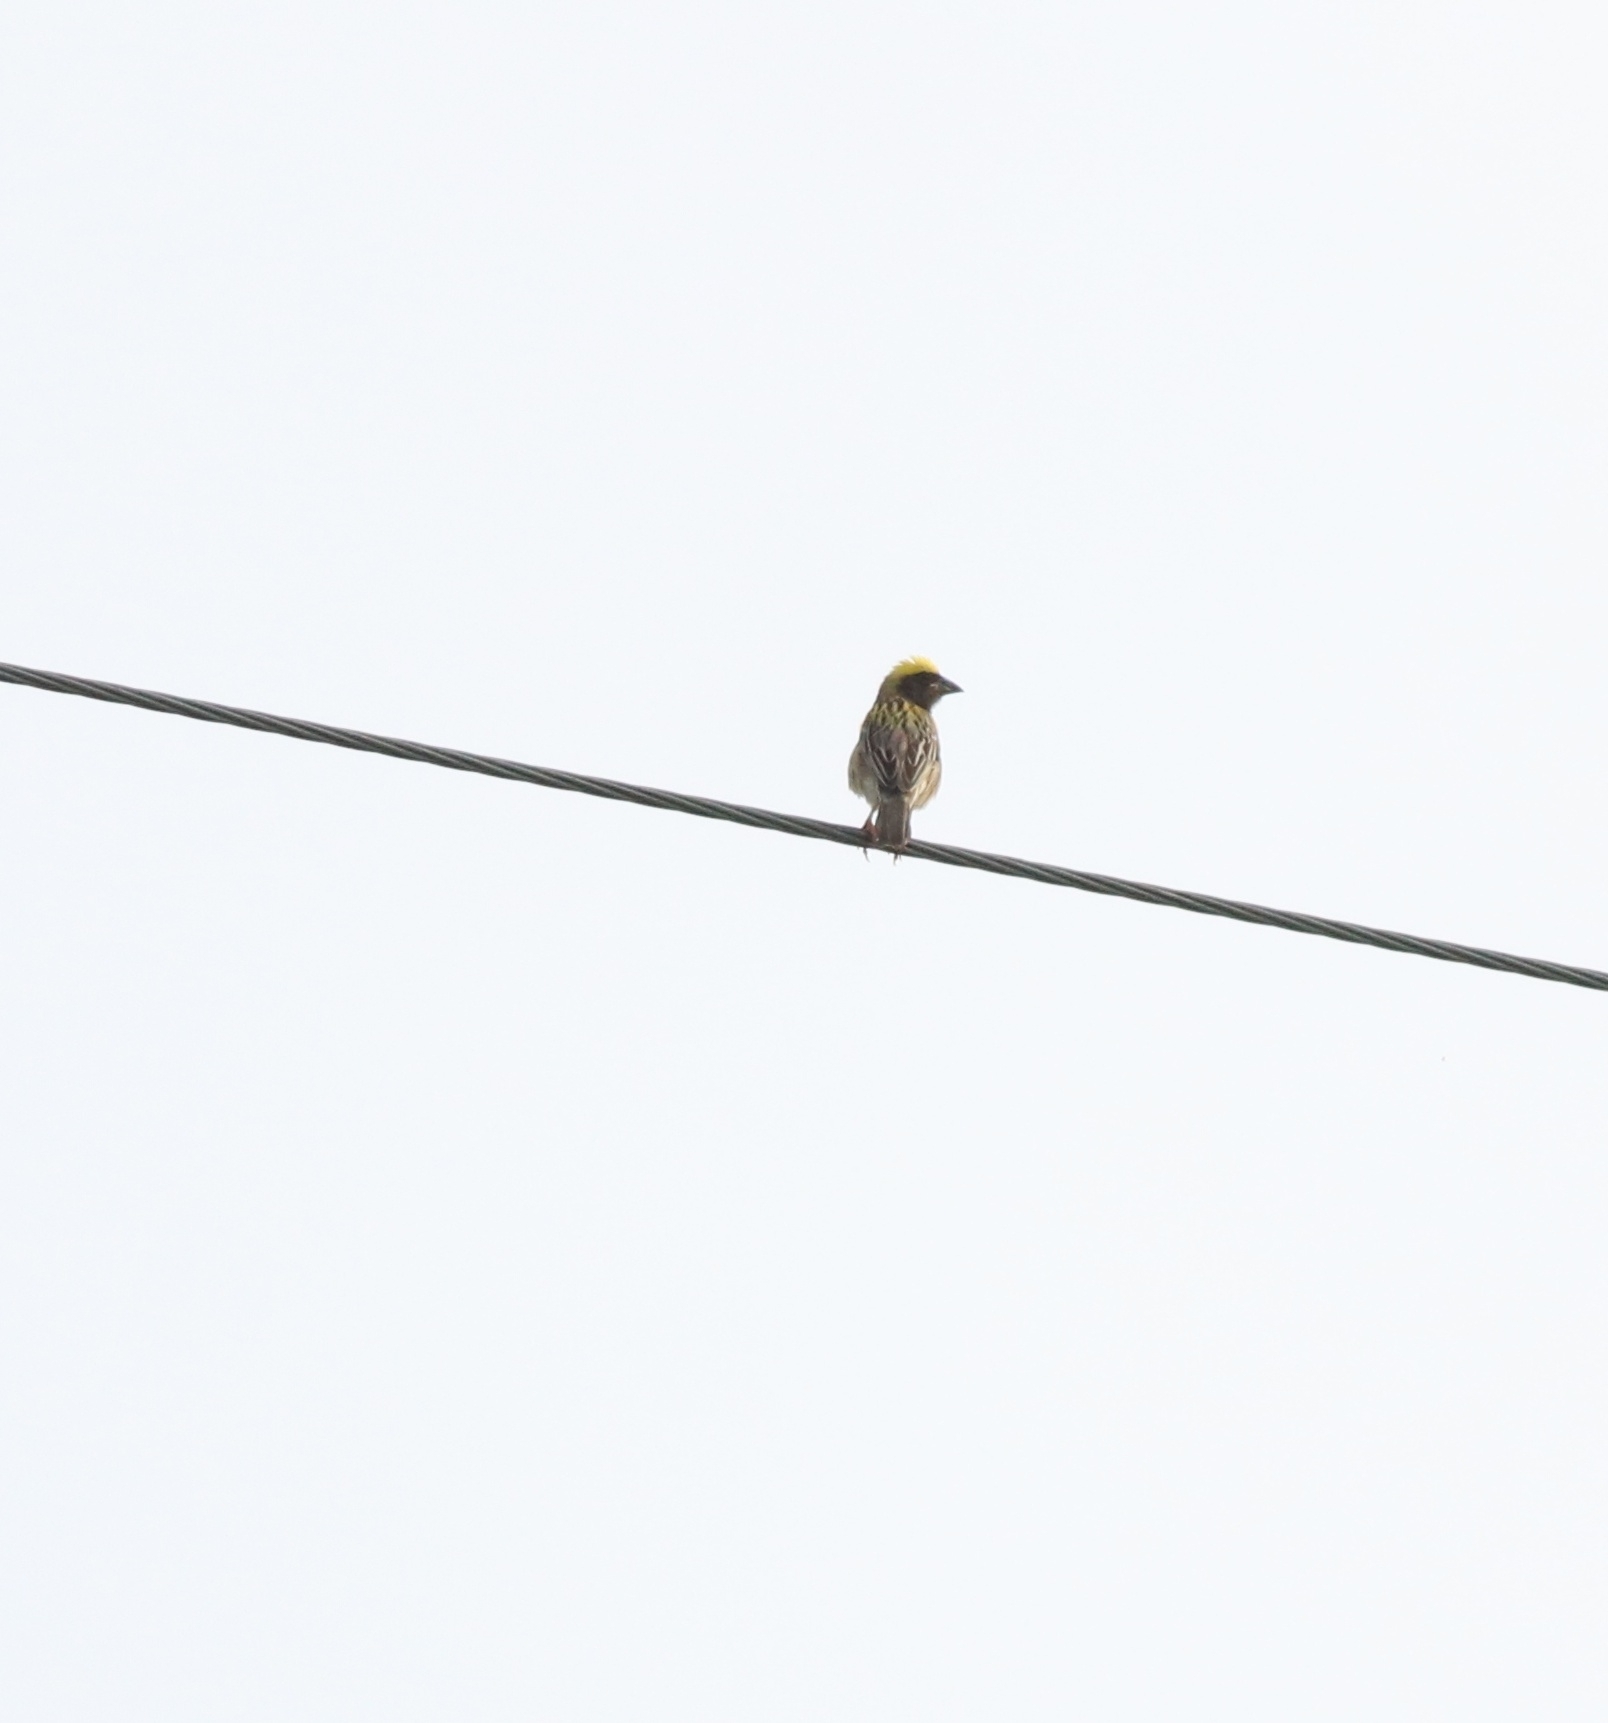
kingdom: Animalia
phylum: Chordata
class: Aves
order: Passeriformes
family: Ploceidae
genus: Ploceus
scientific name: Ploceus philippinus
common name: Baya weaver
